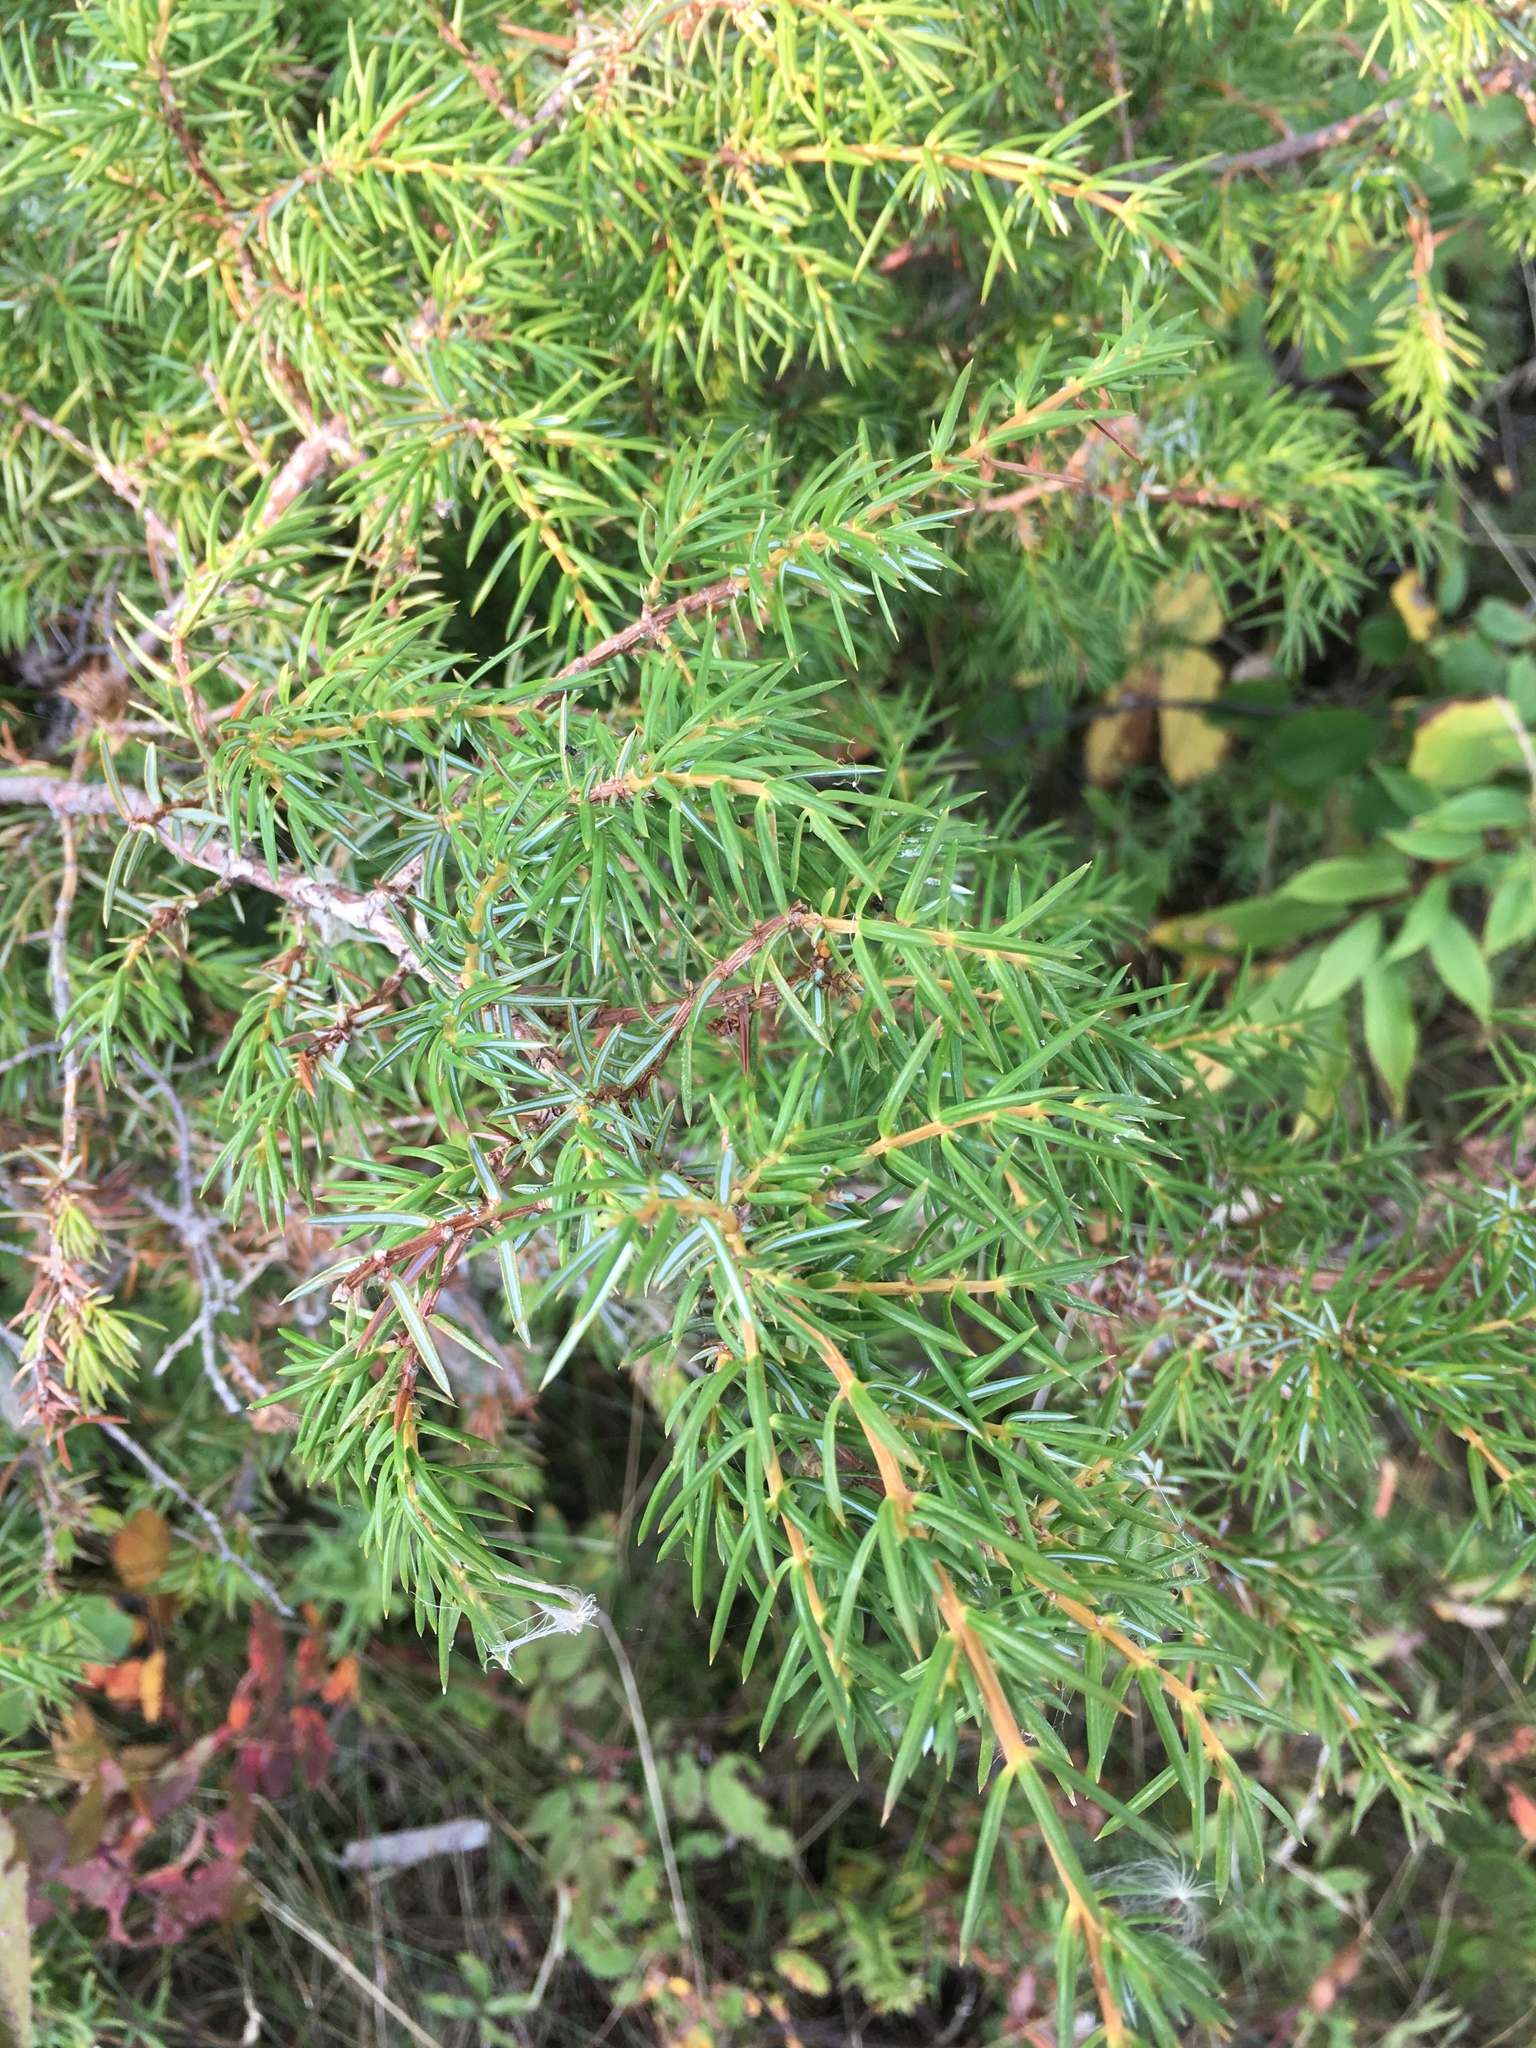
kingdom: Plantae
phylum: Tracheophyta
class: Pinopsida
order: Pinales
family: Cupressaceae
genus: Juniperus
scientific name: Juniperus communis
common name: Common juniper
